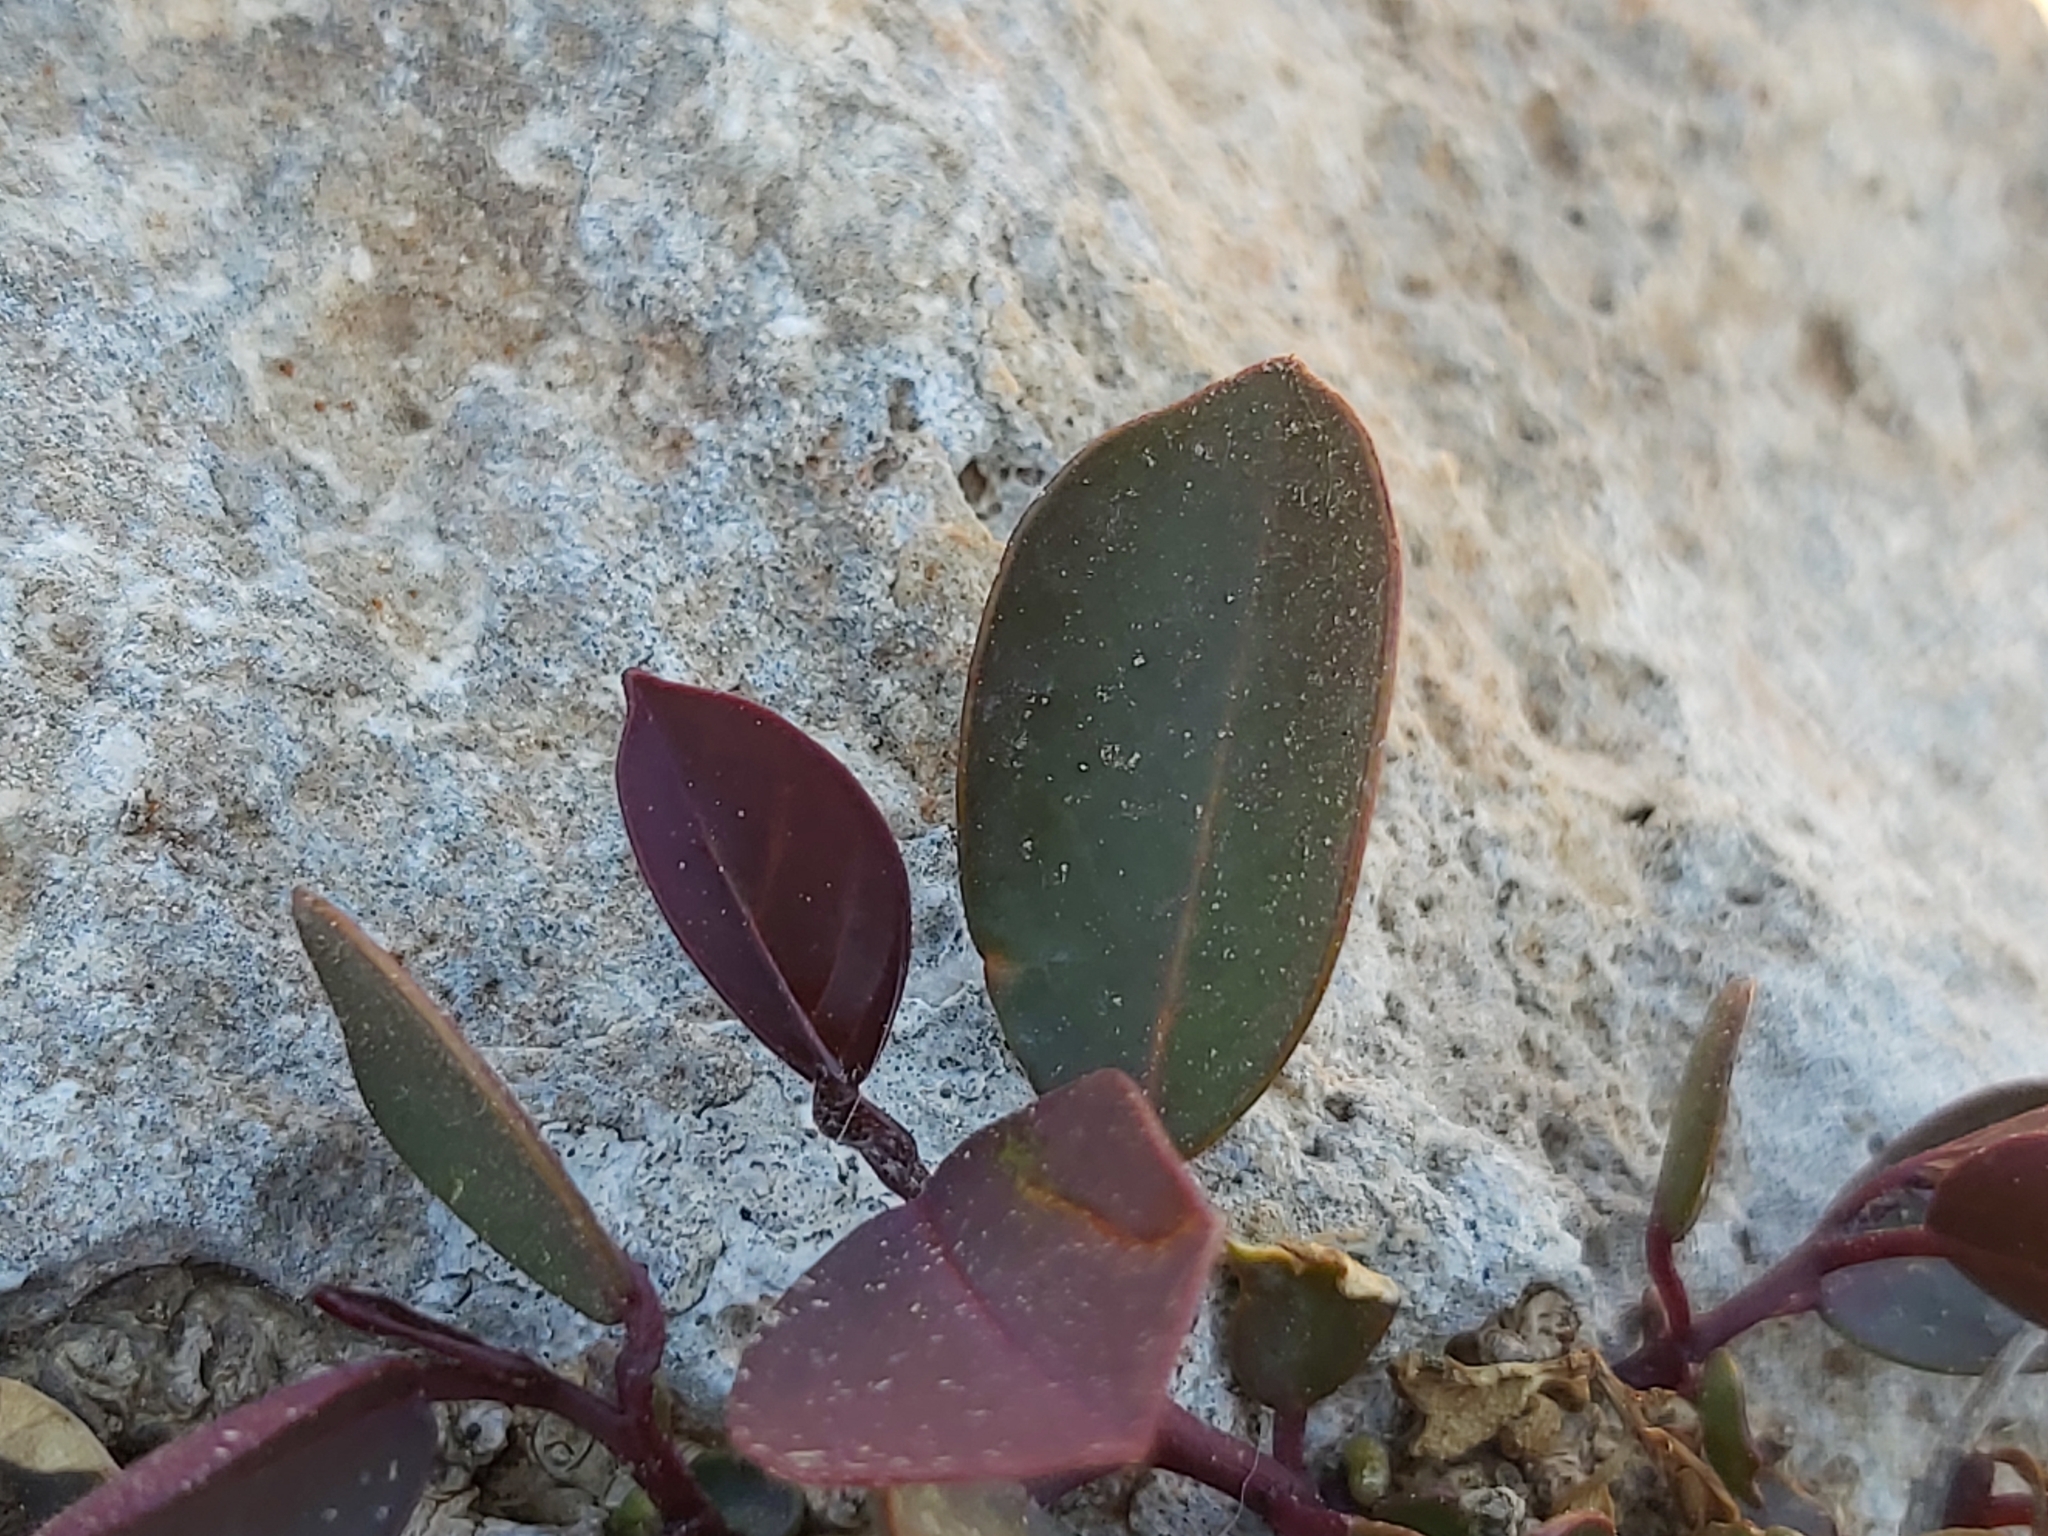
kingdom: Plantae
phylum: Tracheophyta
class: Magnoliopsida
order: Brassicales
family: Capparaceae
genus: Capparis
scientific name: Capparis orientalis
